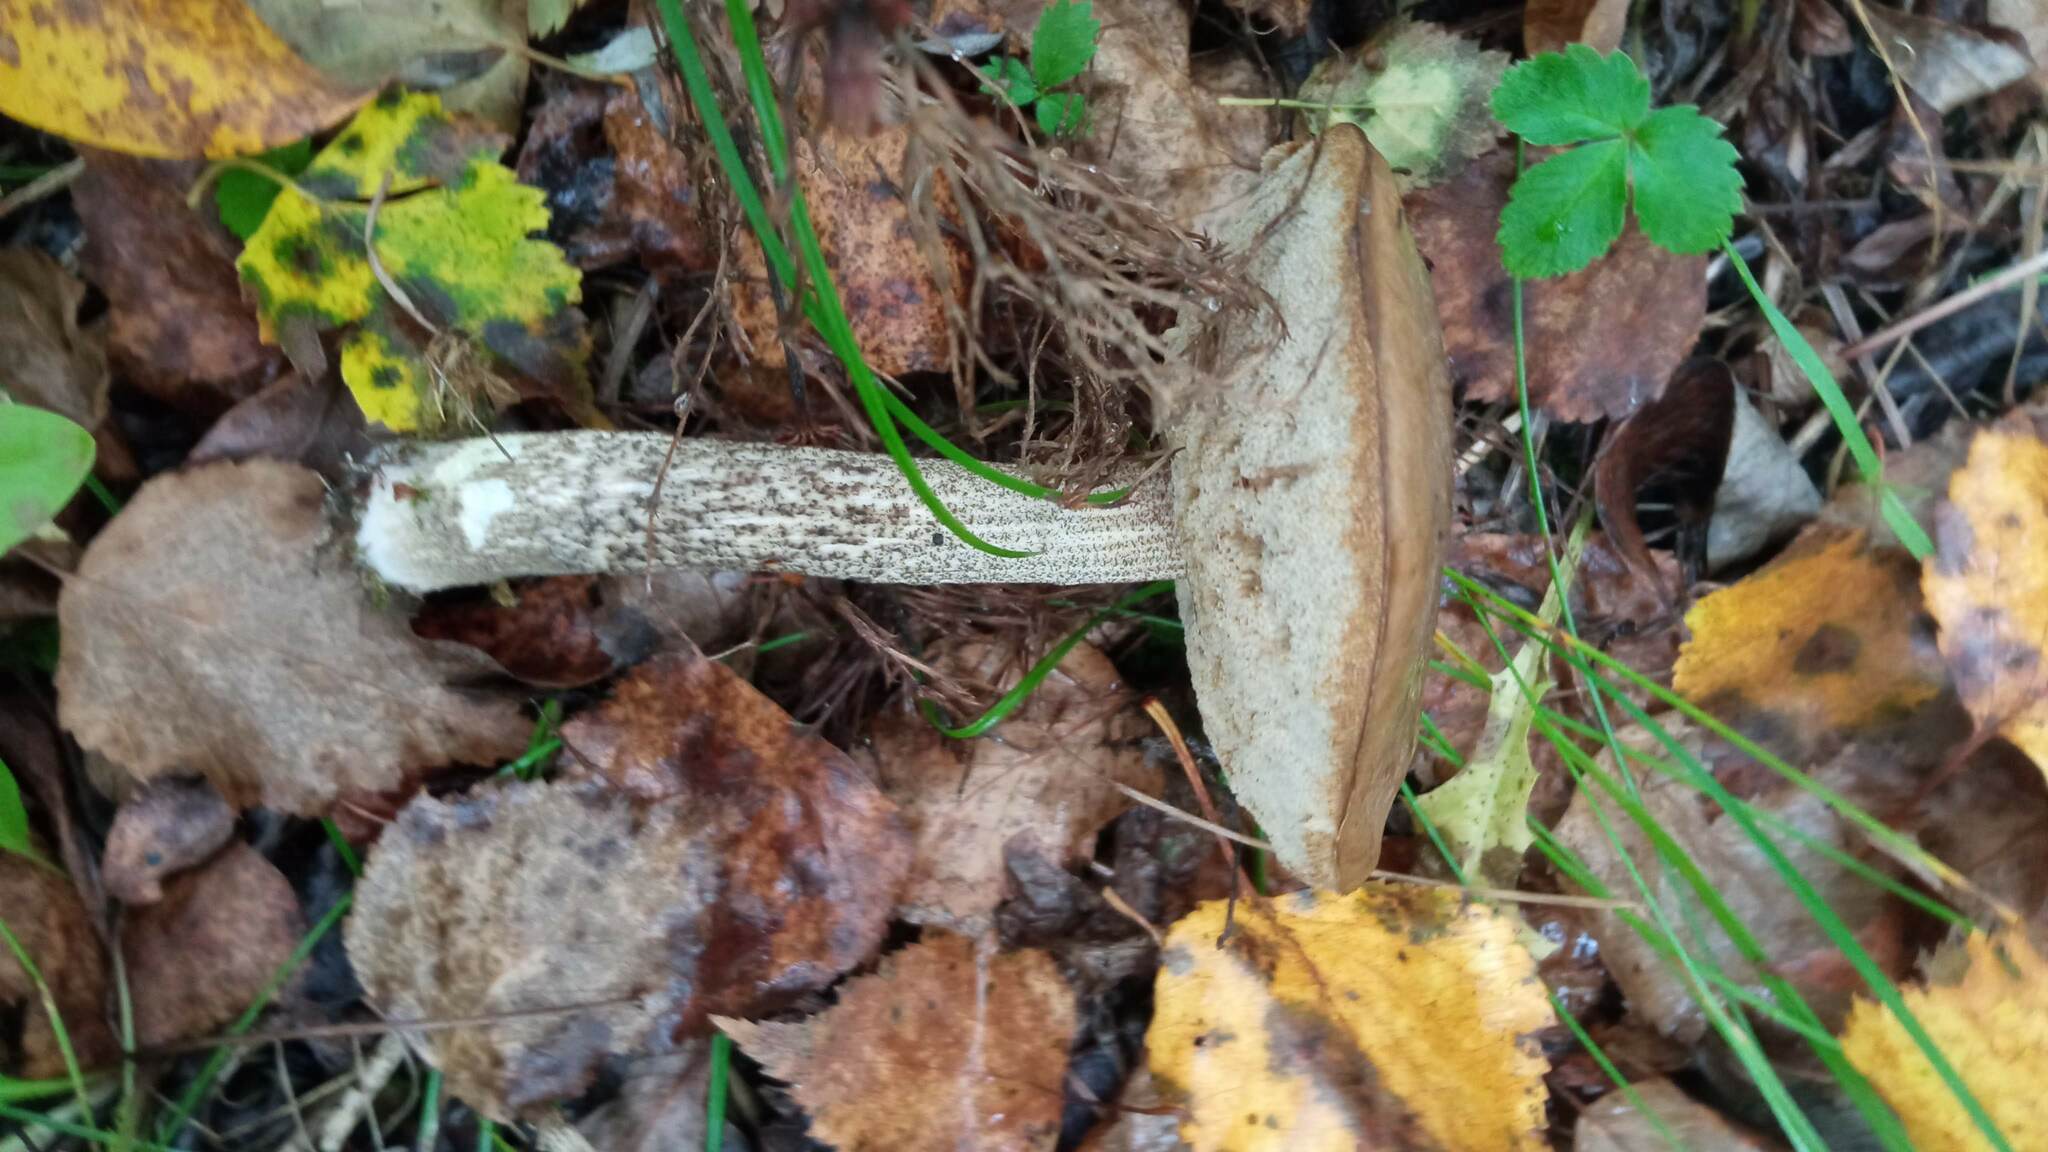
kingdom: Fungi
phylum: Basidiomycota
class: Agaricomycetes
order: Boletales
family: Boletaceae
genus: Leccinum
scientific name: Leccinum scabrum
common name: Blushing bolete
